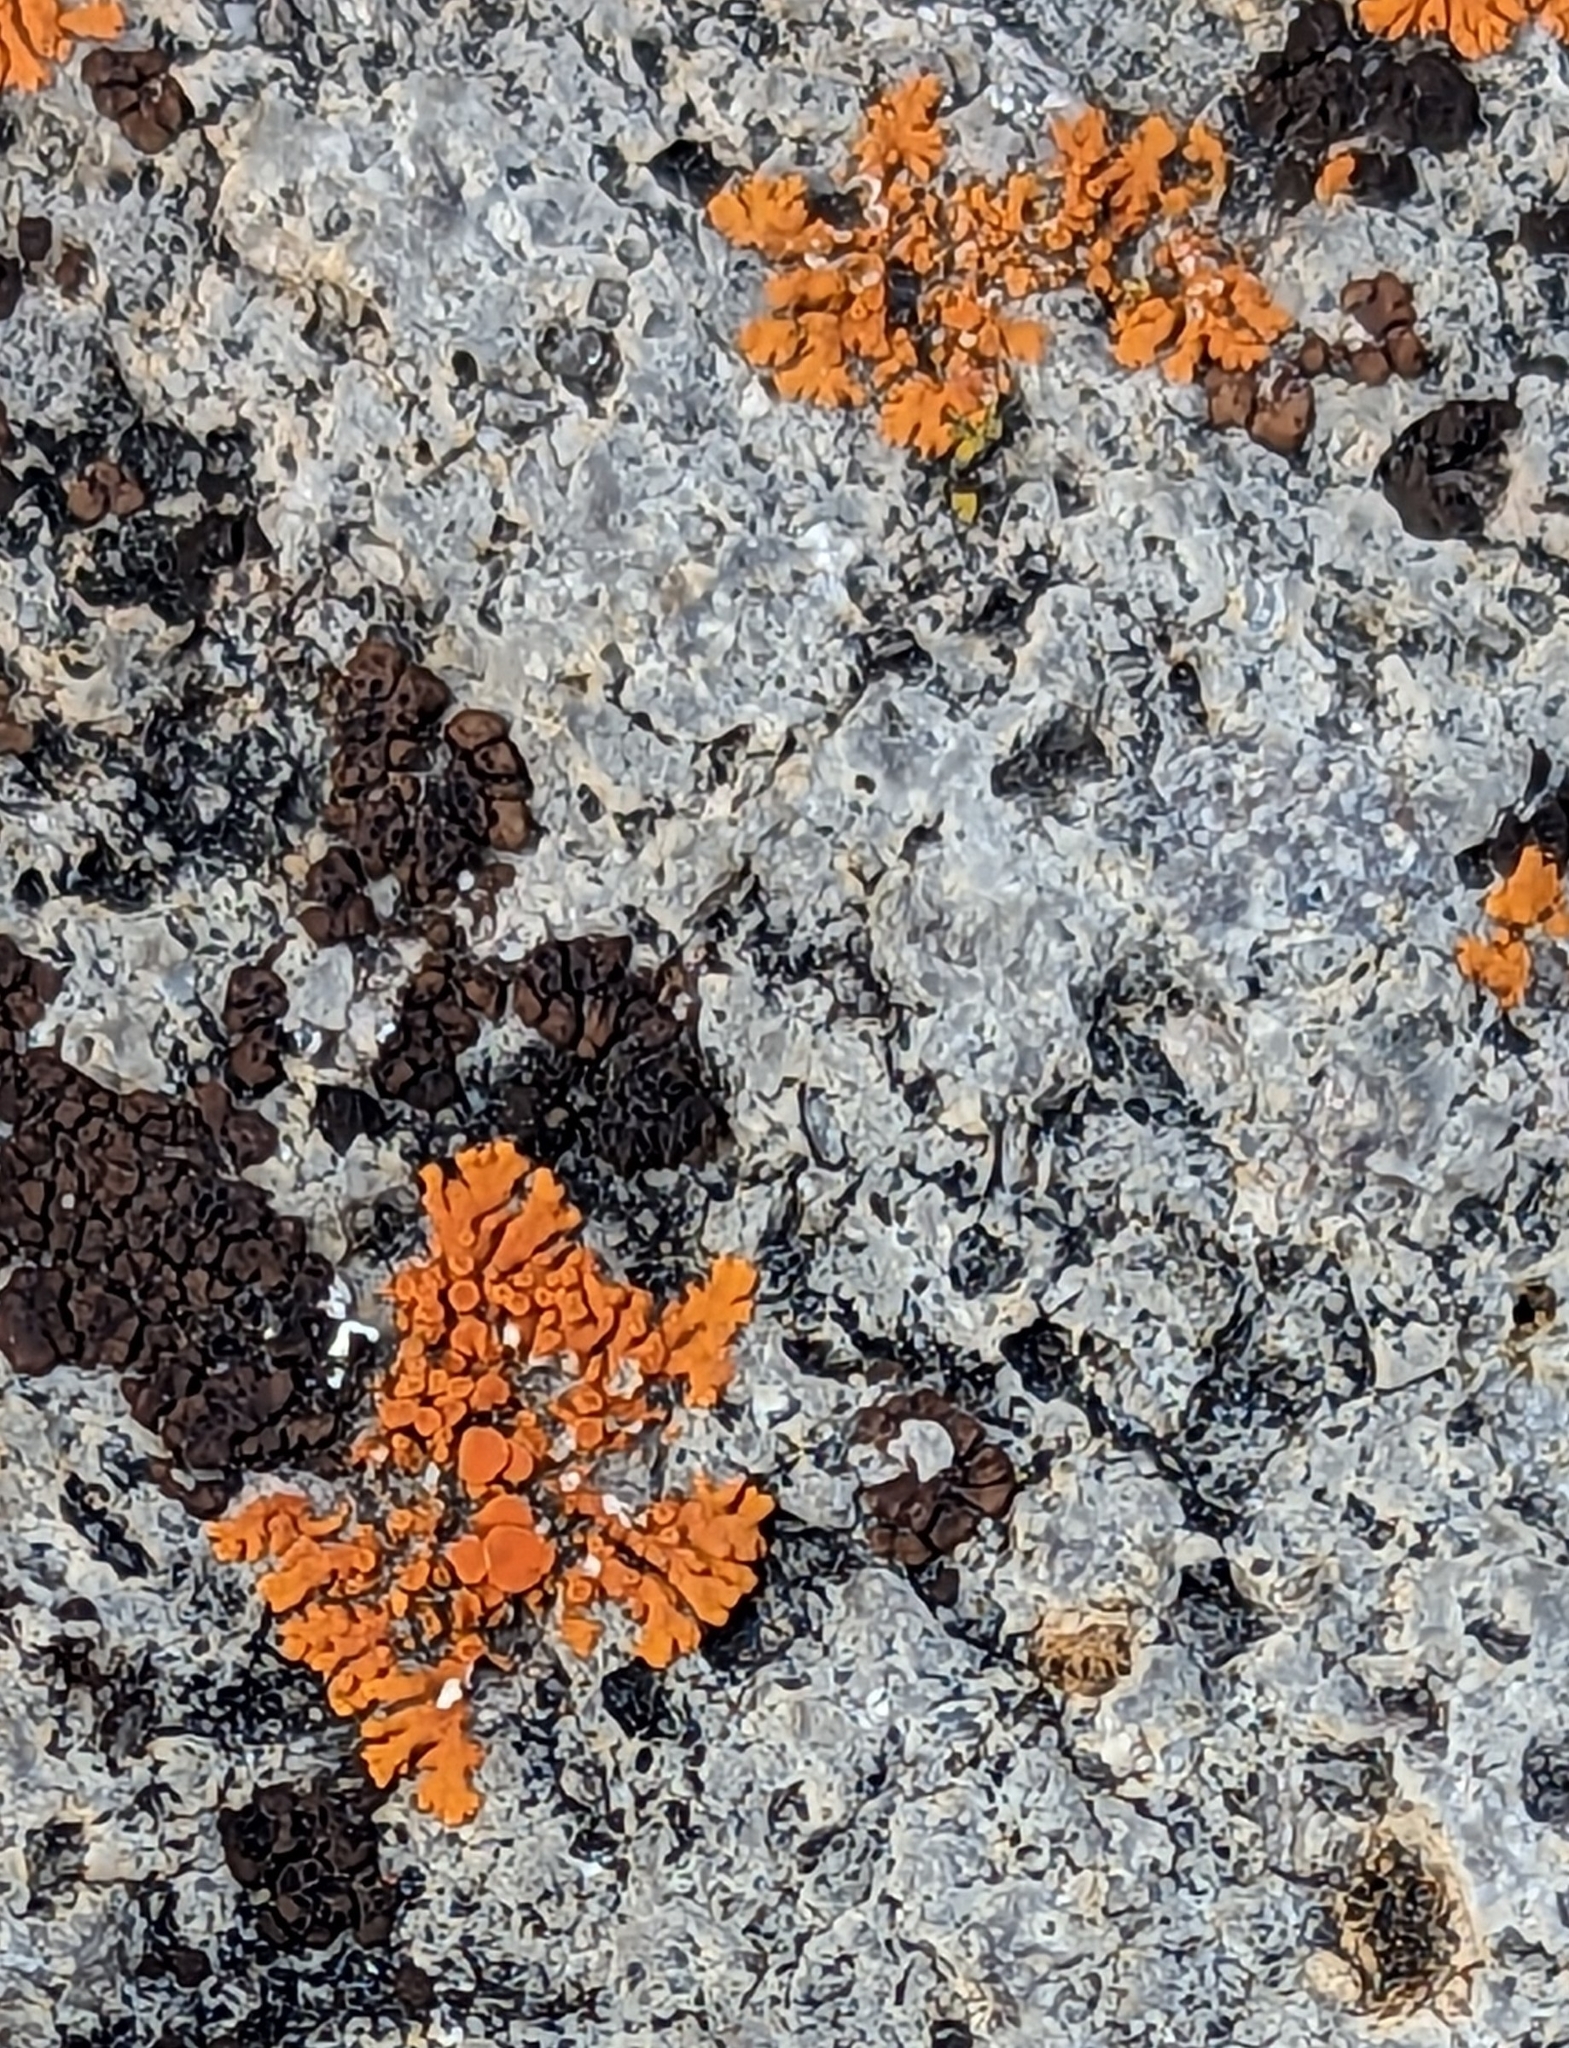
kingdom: Fungi
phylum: Ascomycota
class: Lecanoromycetes
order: Teloschistales
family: Teloschistaceae
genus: Xanthoria
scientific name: Xanthoria elegans
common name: Elegant sunburst lichen
